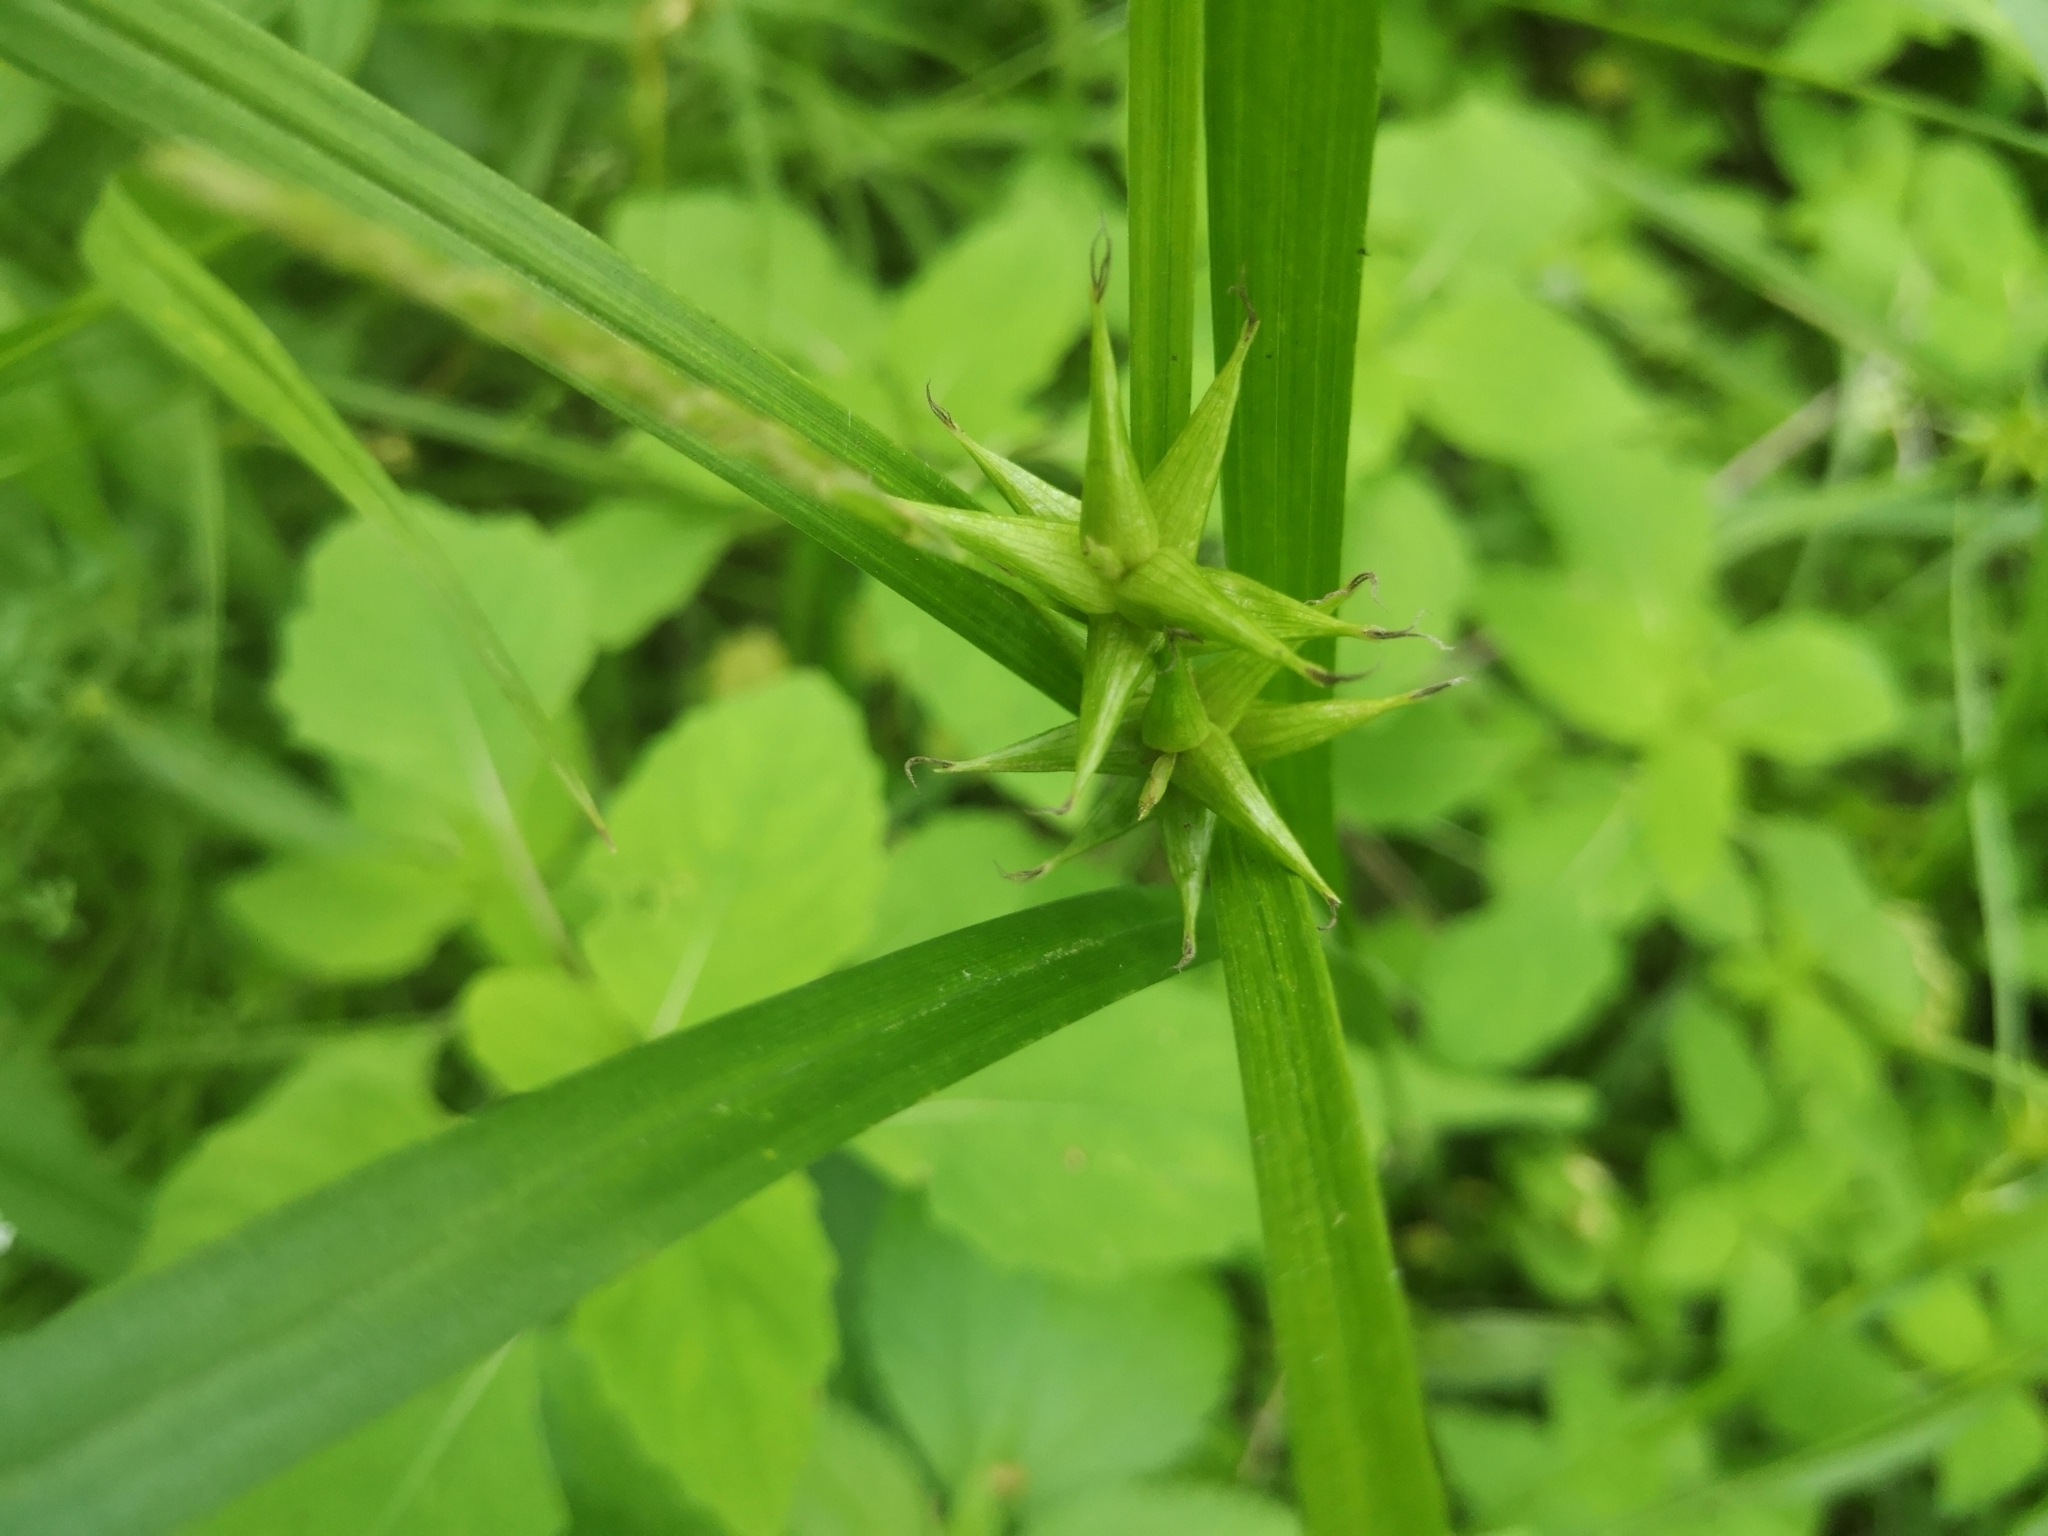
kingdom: Plantae
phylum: Tracheophyta
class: Liliopsida
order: Poales
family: Cyperaceae
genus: Carex
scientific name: Carex intumescens
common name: Greater bladder sedge
